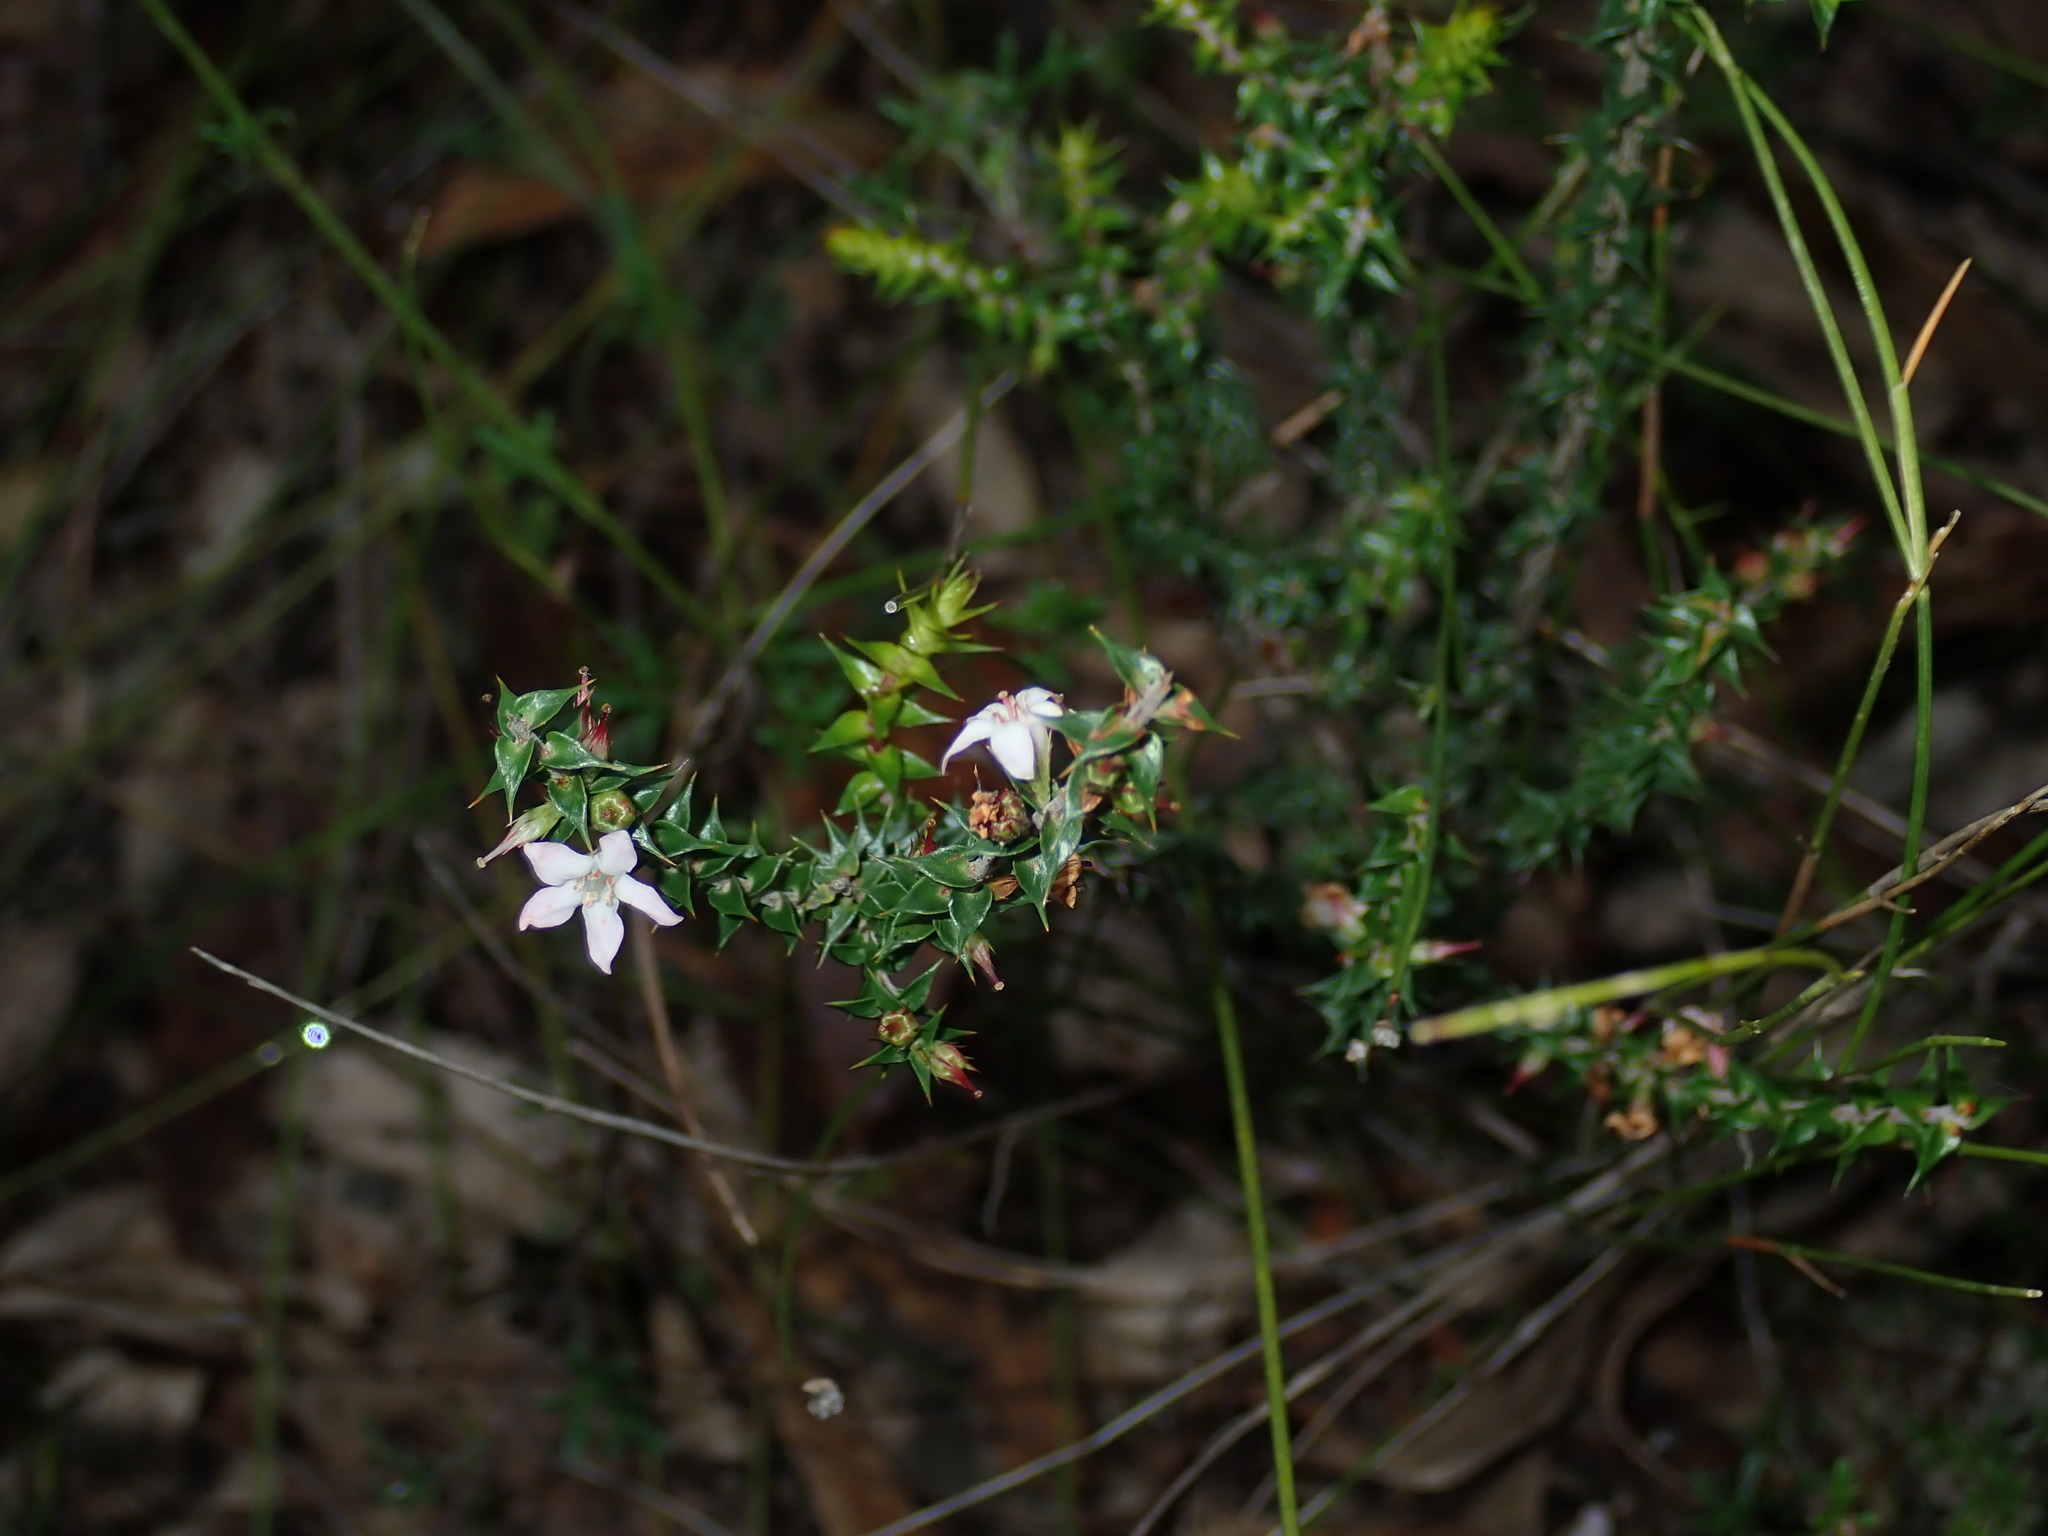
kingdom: Plantae
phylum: Tracheophyta
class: Magnoliopsida
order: Ericales
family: Ericaceae
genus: Epacris
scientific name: Epacris pulchella
